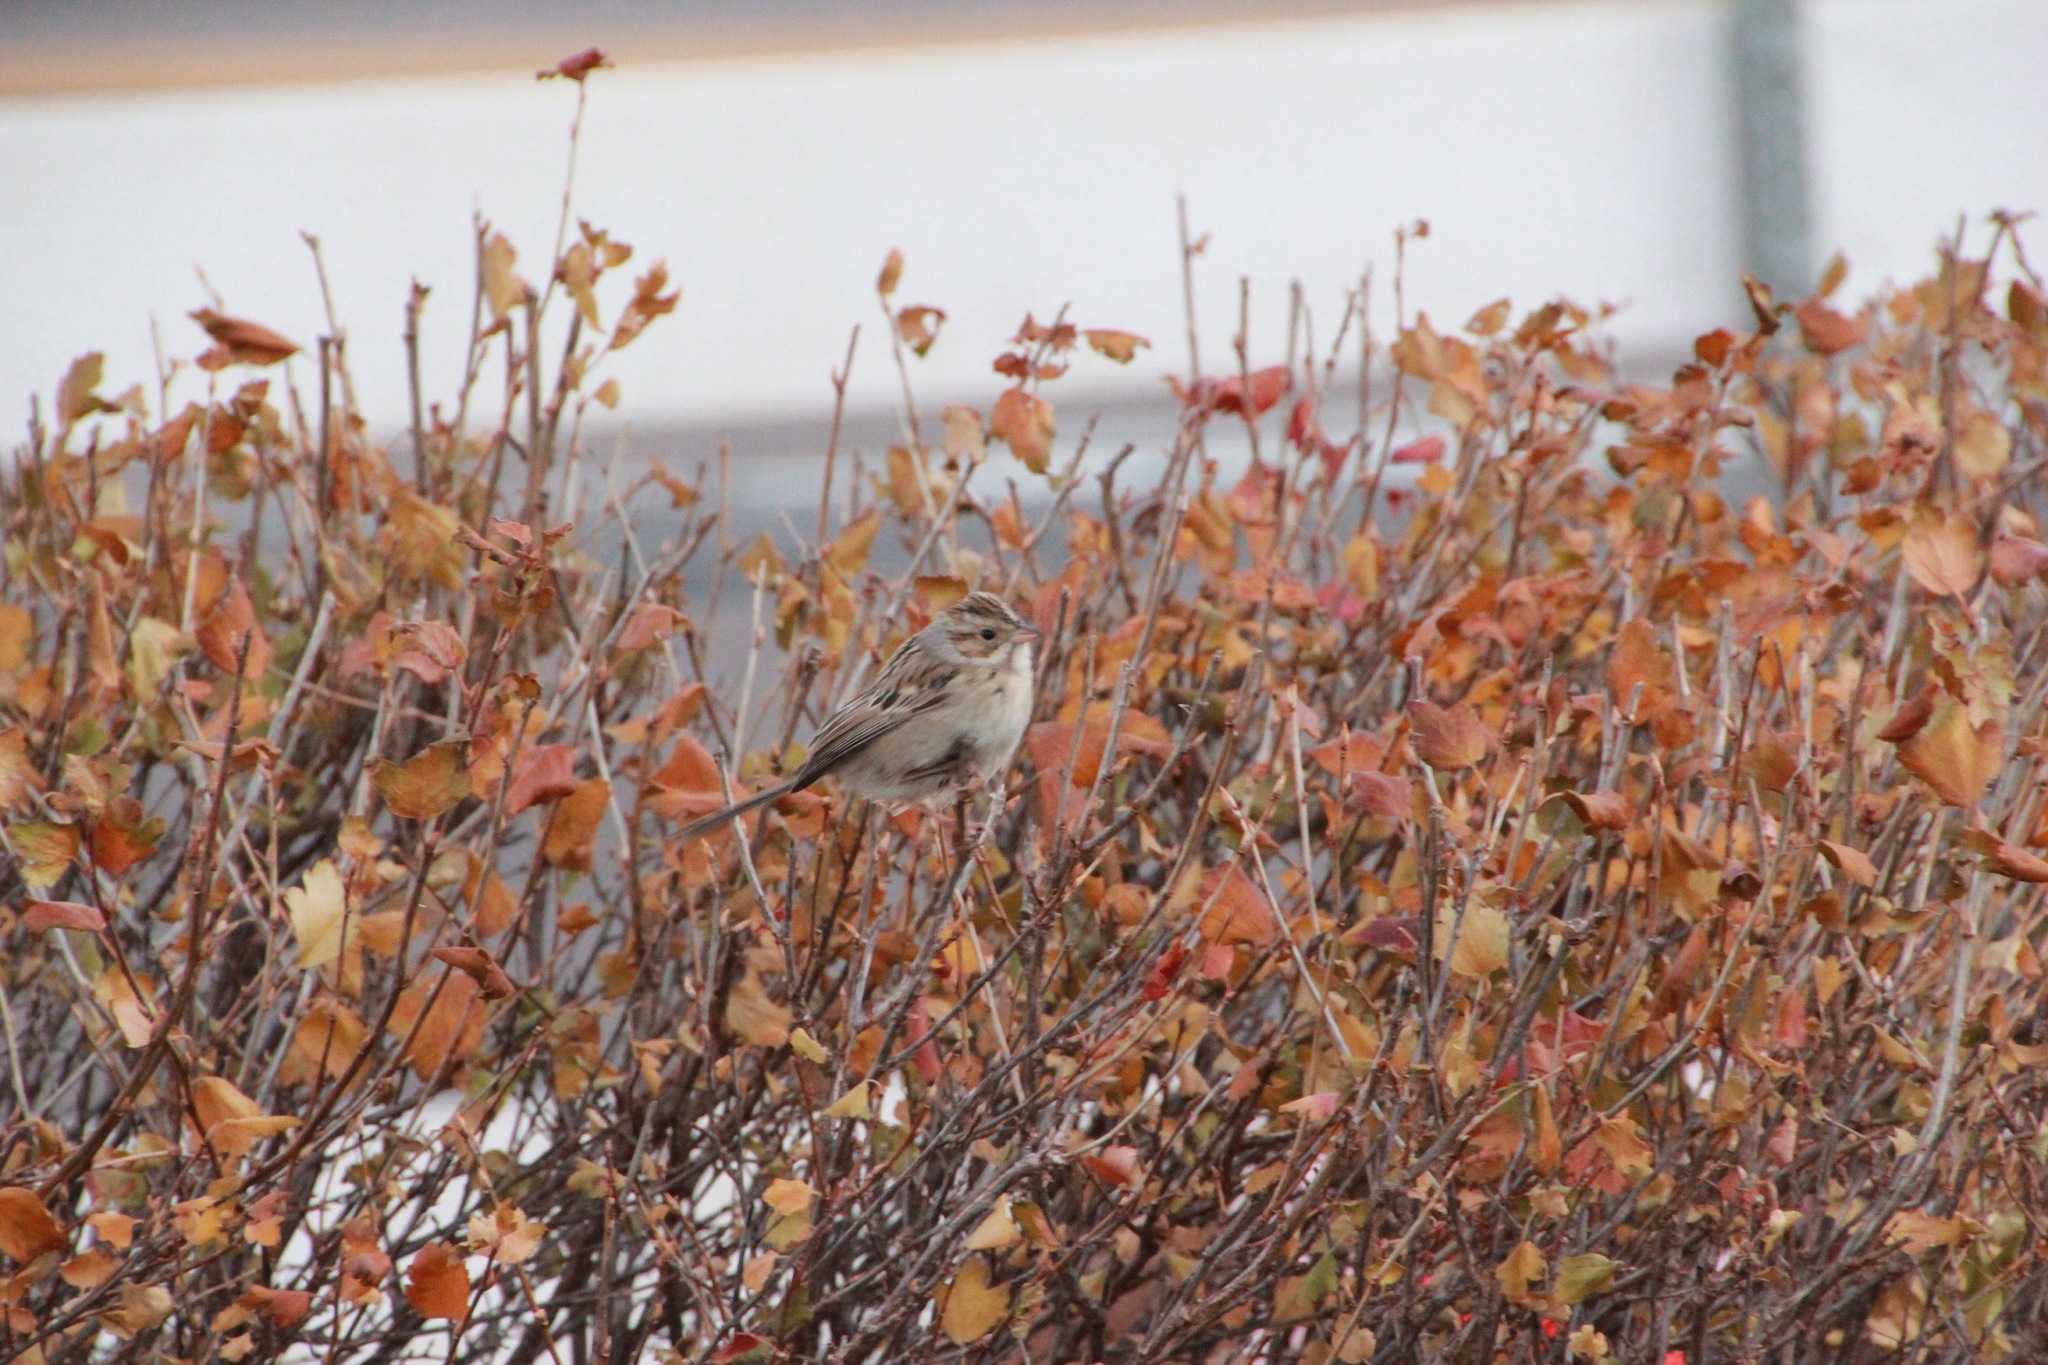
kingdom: Animalia
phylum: Chordata
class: Aves
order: Passeriformes
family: Passerellidae
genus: Spizella
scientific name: Spizella pallida
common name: Clay-colored sparrow
